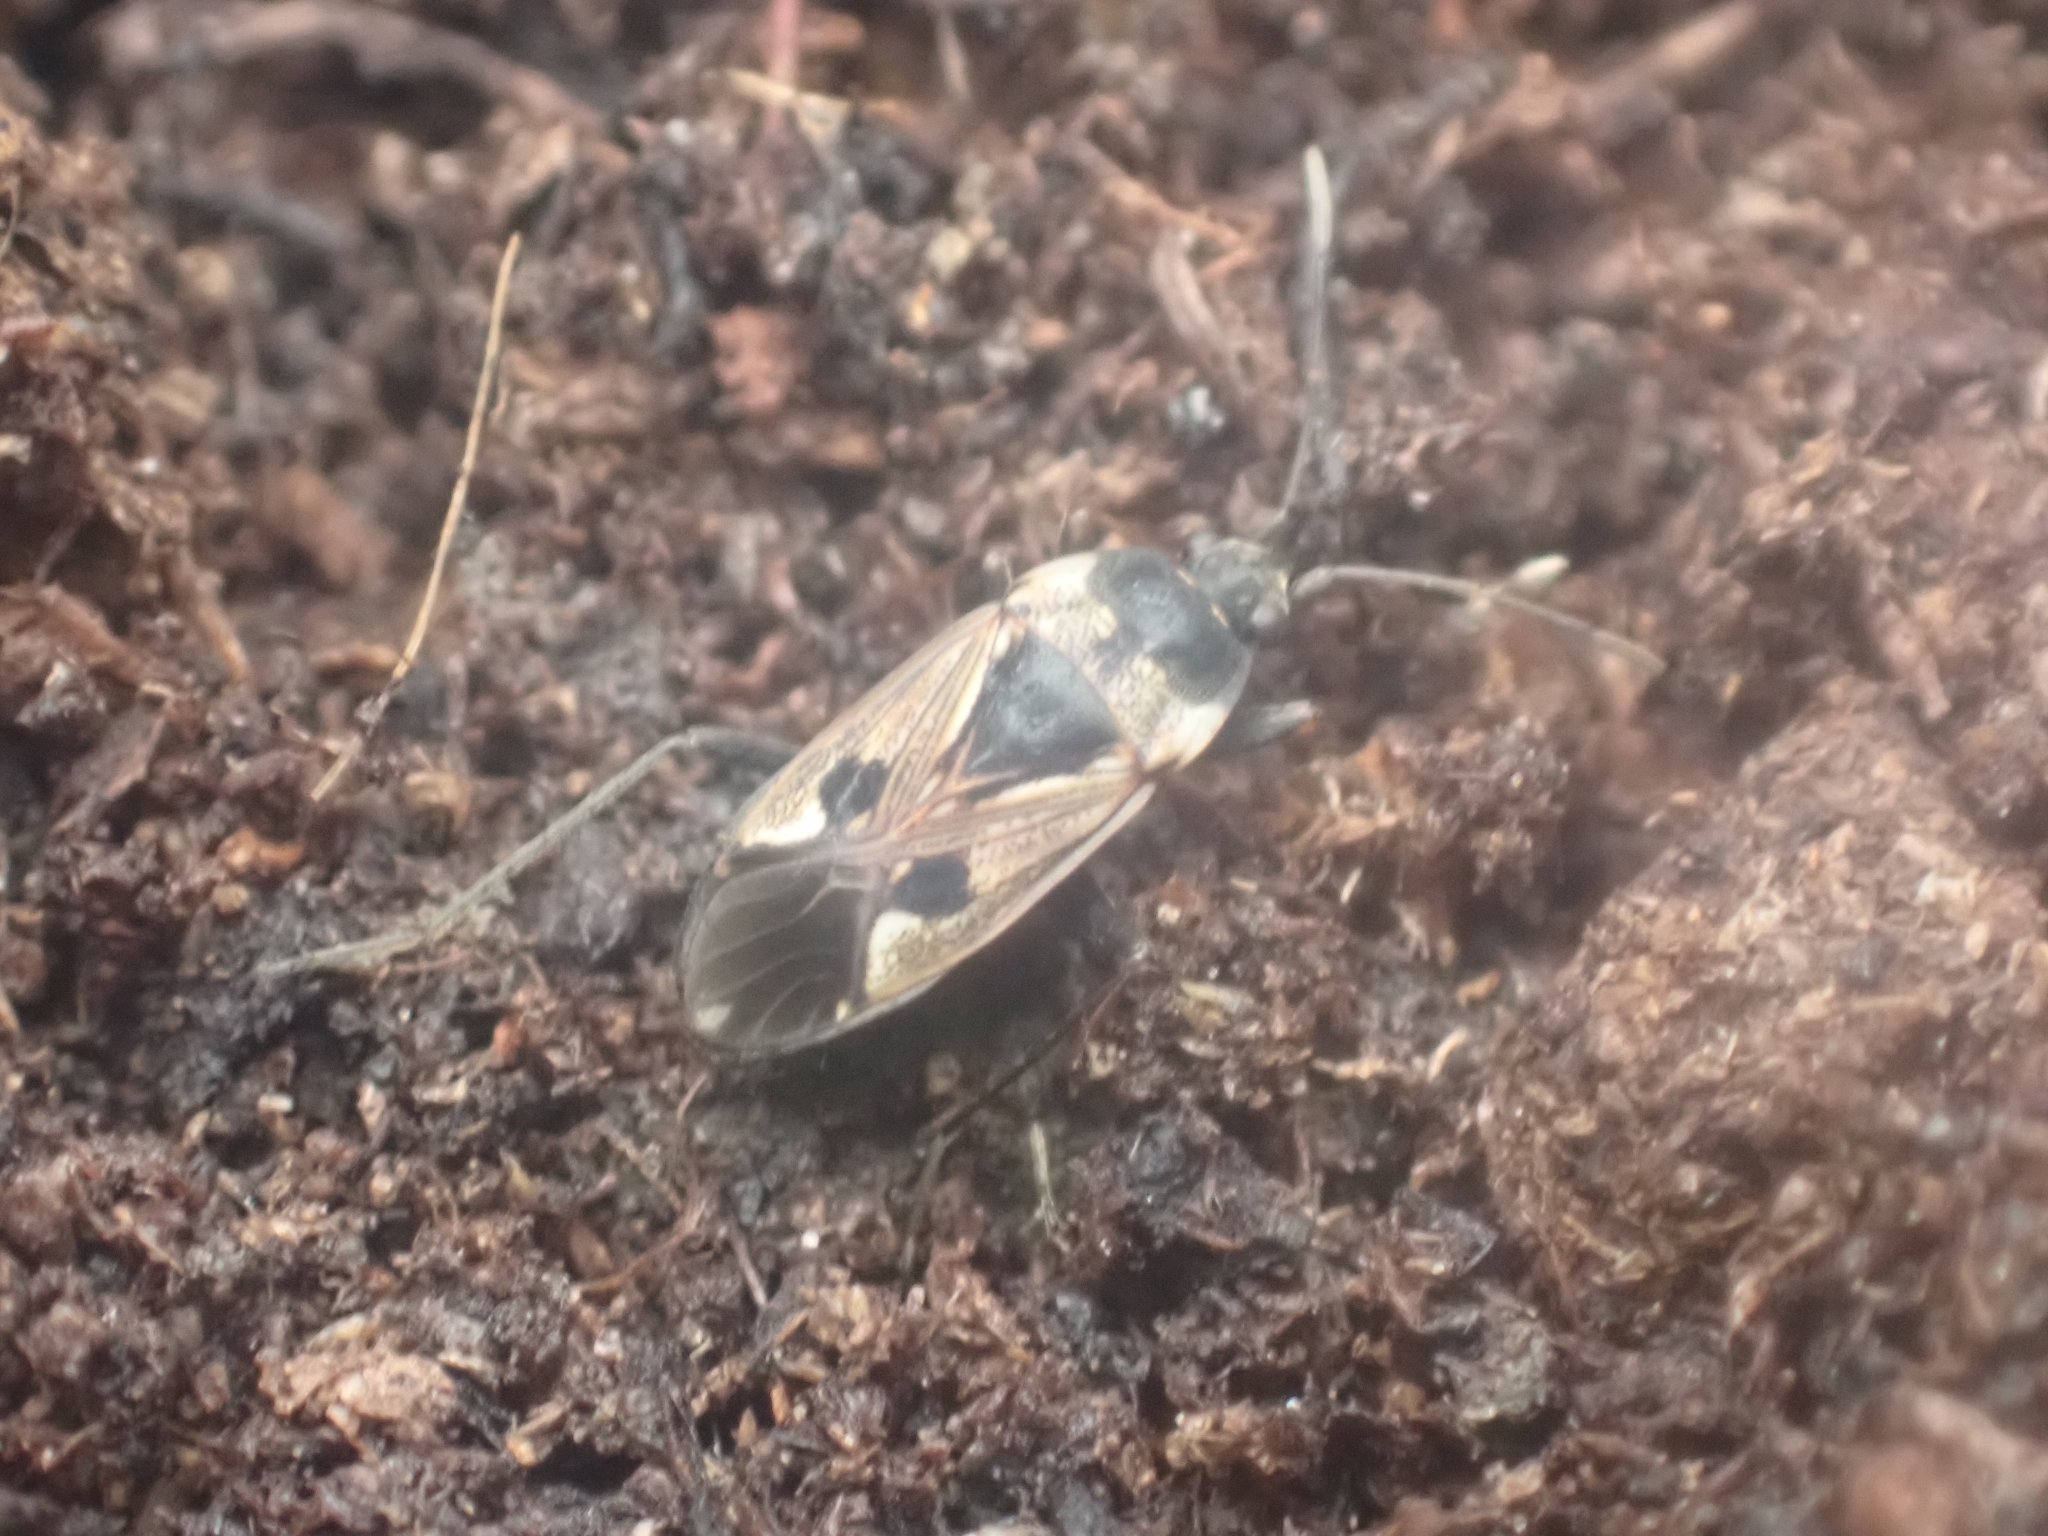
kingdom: Animalia
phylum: Arthropoda
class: Insecta
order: Hemiptera
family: Rhyparochromidae
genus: Rhyparochromus
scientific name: Rhyparochromus vulgaris
